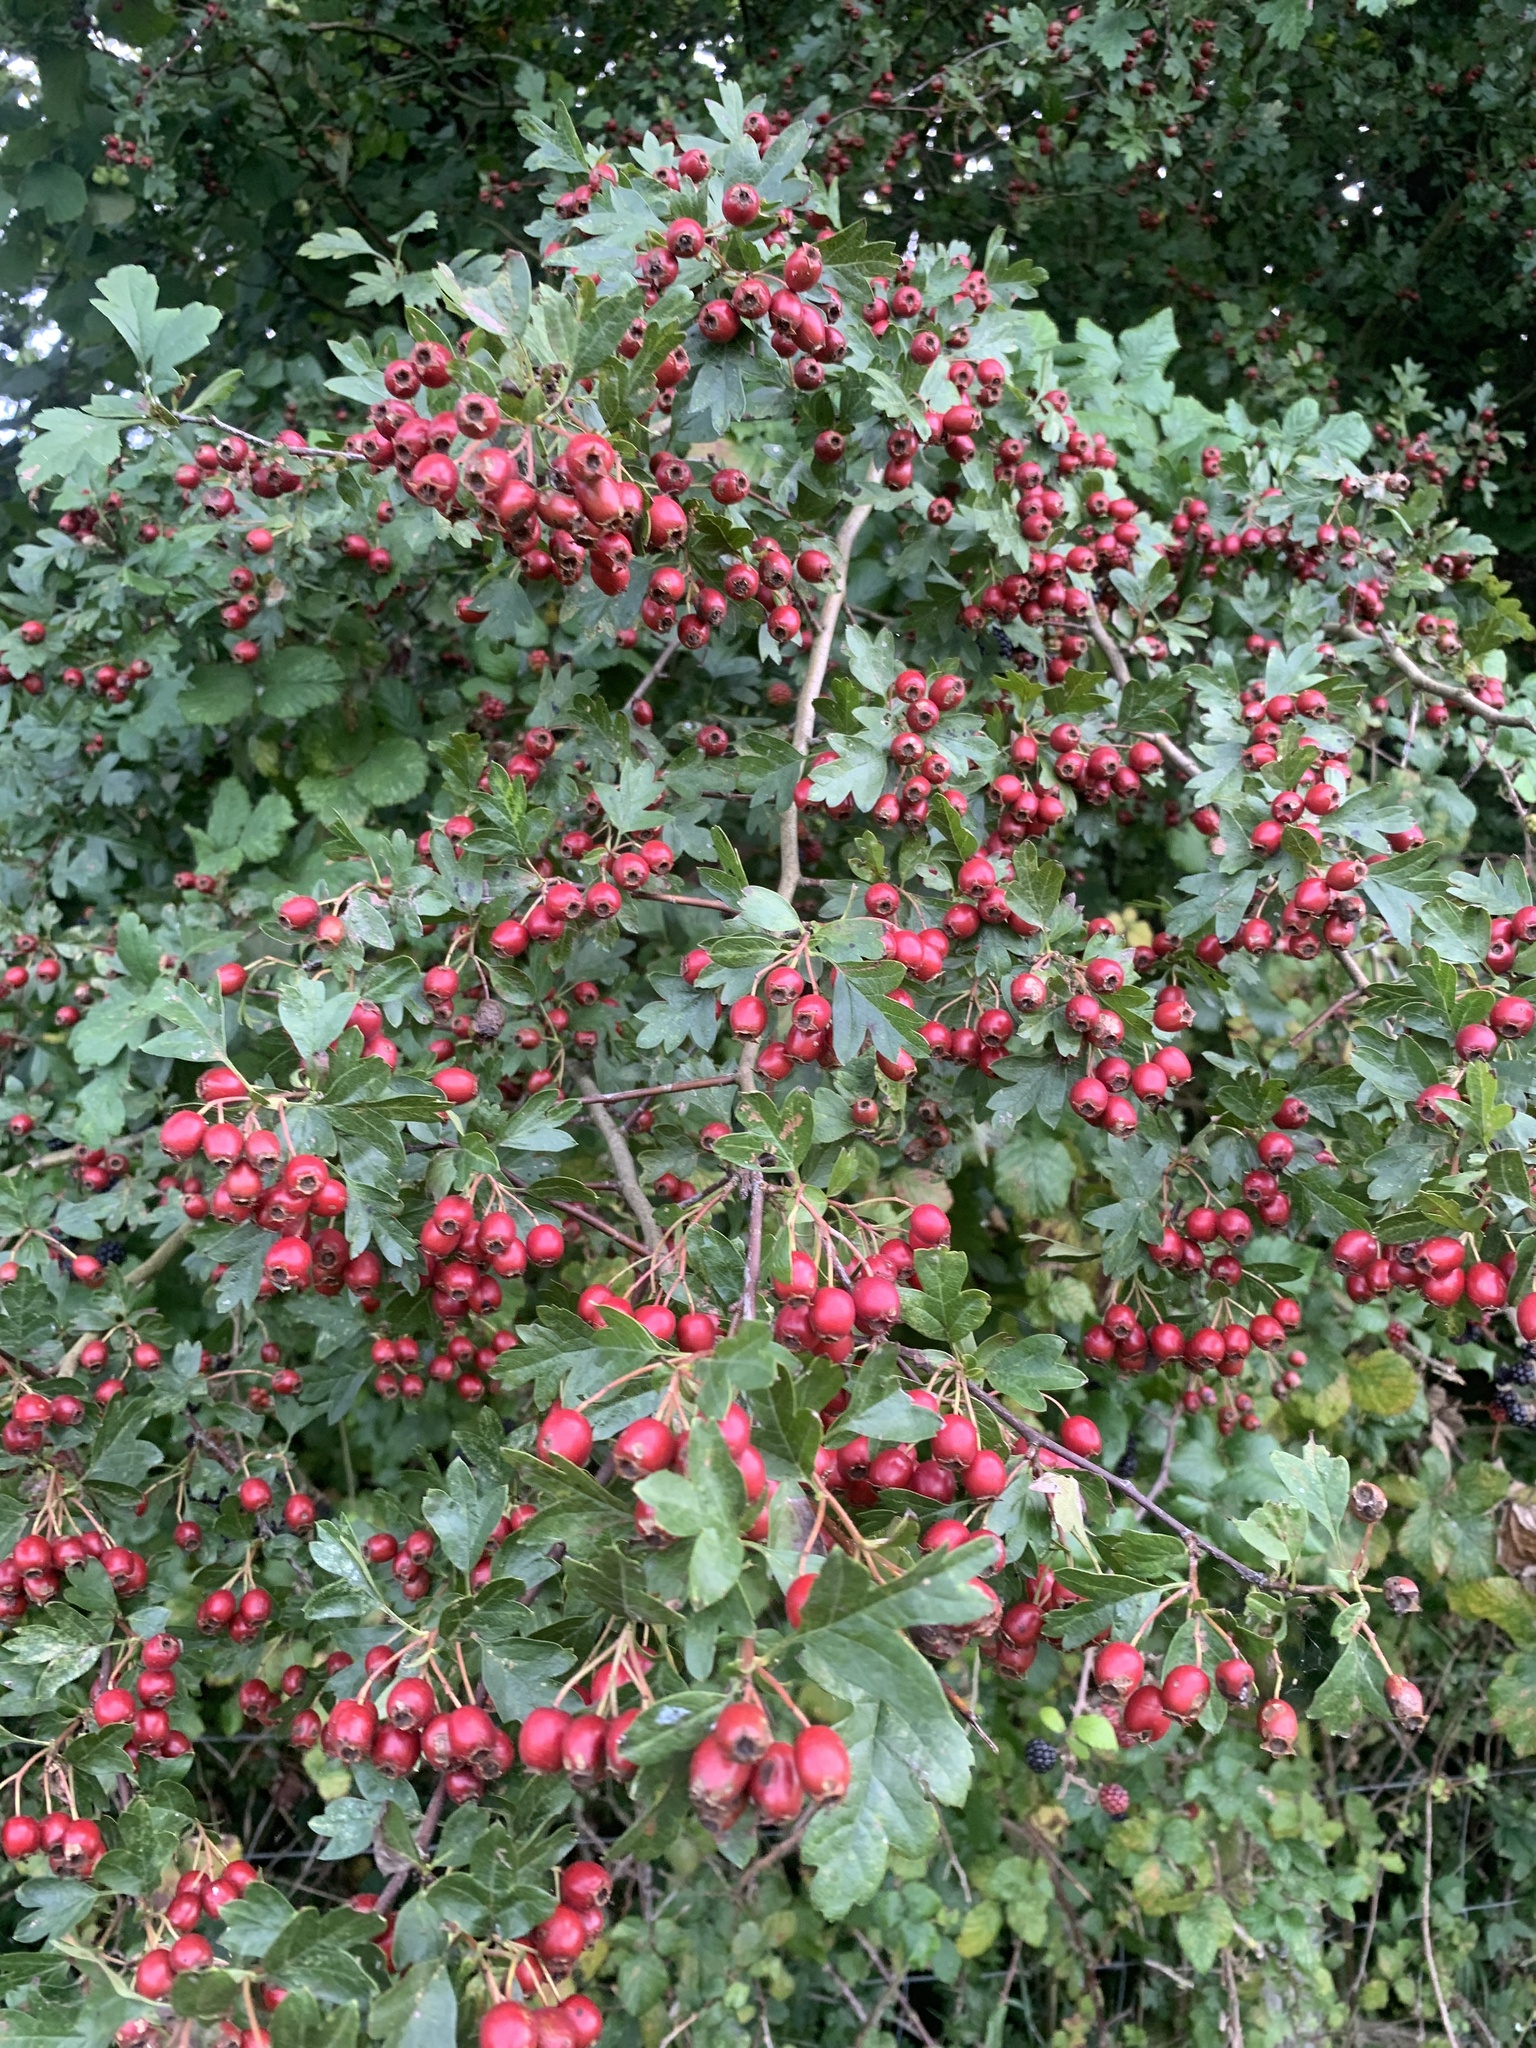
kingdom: Plantae
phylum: Tracheophyta
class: Magnoliopsida
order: Rosales
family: Rosaceae
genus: Crataegus
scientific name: Crataegus monogyna
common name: Hawthorn
